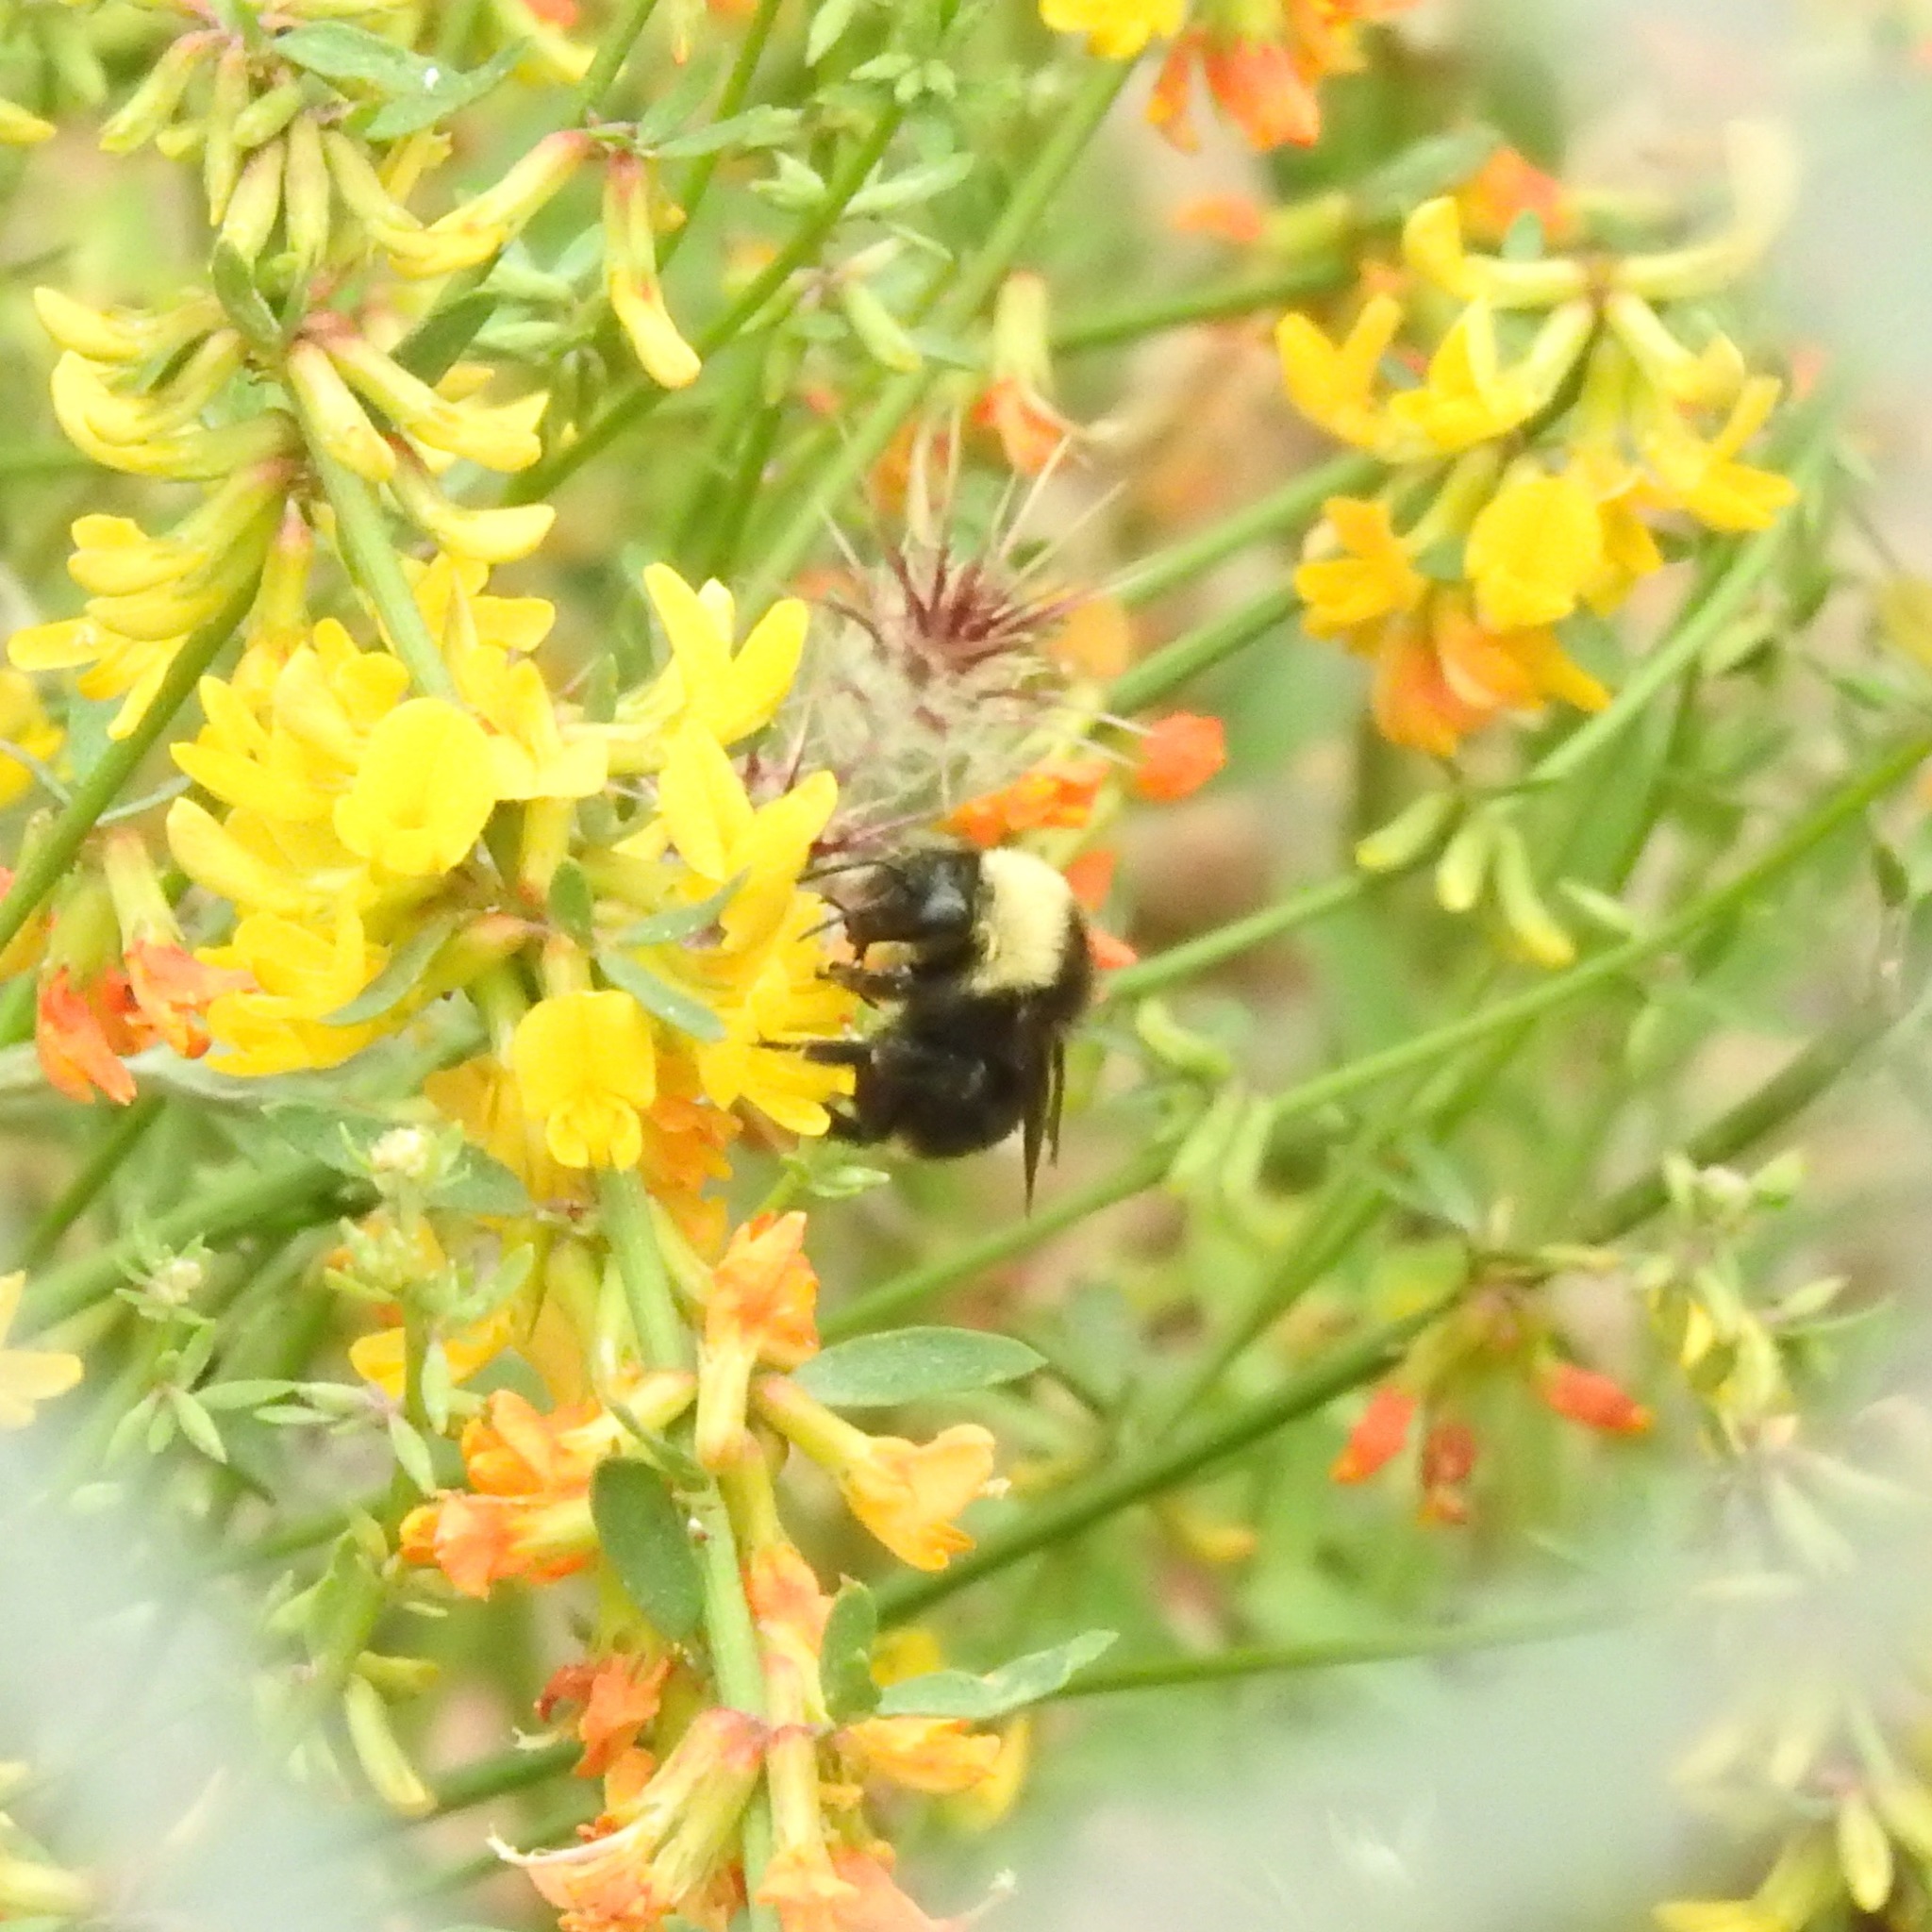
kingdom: Animalia
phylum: Arthropoda
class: Insecta
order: Hymenoptera
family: Apidae
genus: Bombus
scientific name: Bombus californicus
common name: California bumble bee
